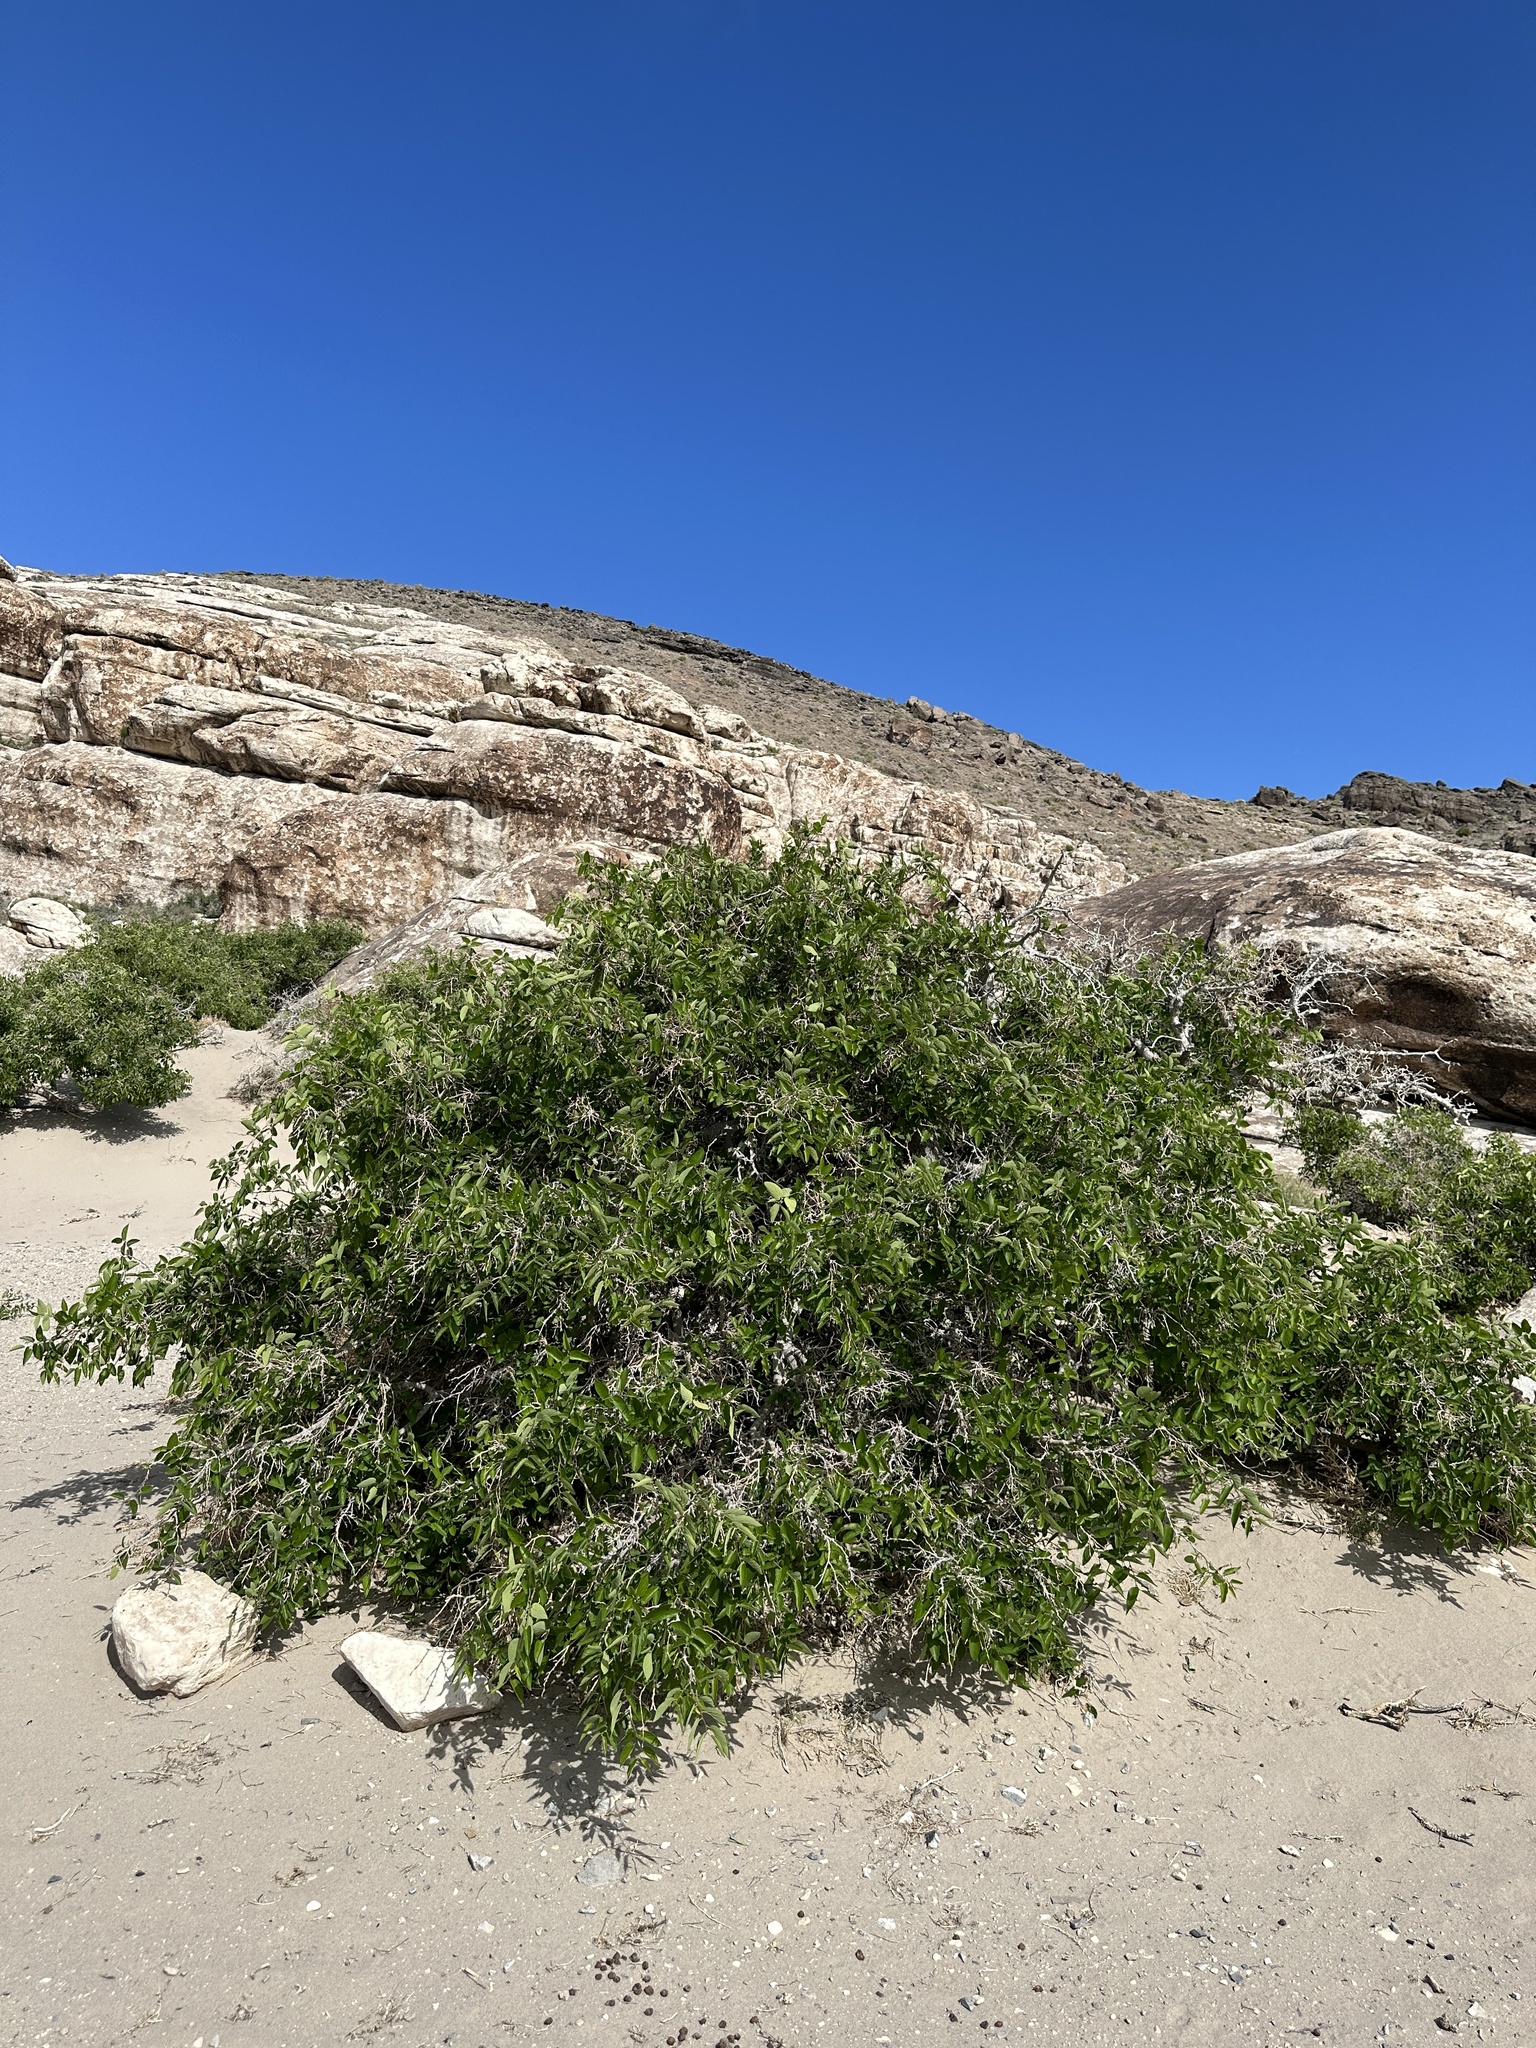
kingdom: Plantae
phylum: Tracheophyta
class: Magnoliopsida
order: Rosales
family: Cannabaceae
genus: Celtis
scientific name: Celtis reticulata
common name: Netleaf hackberry
